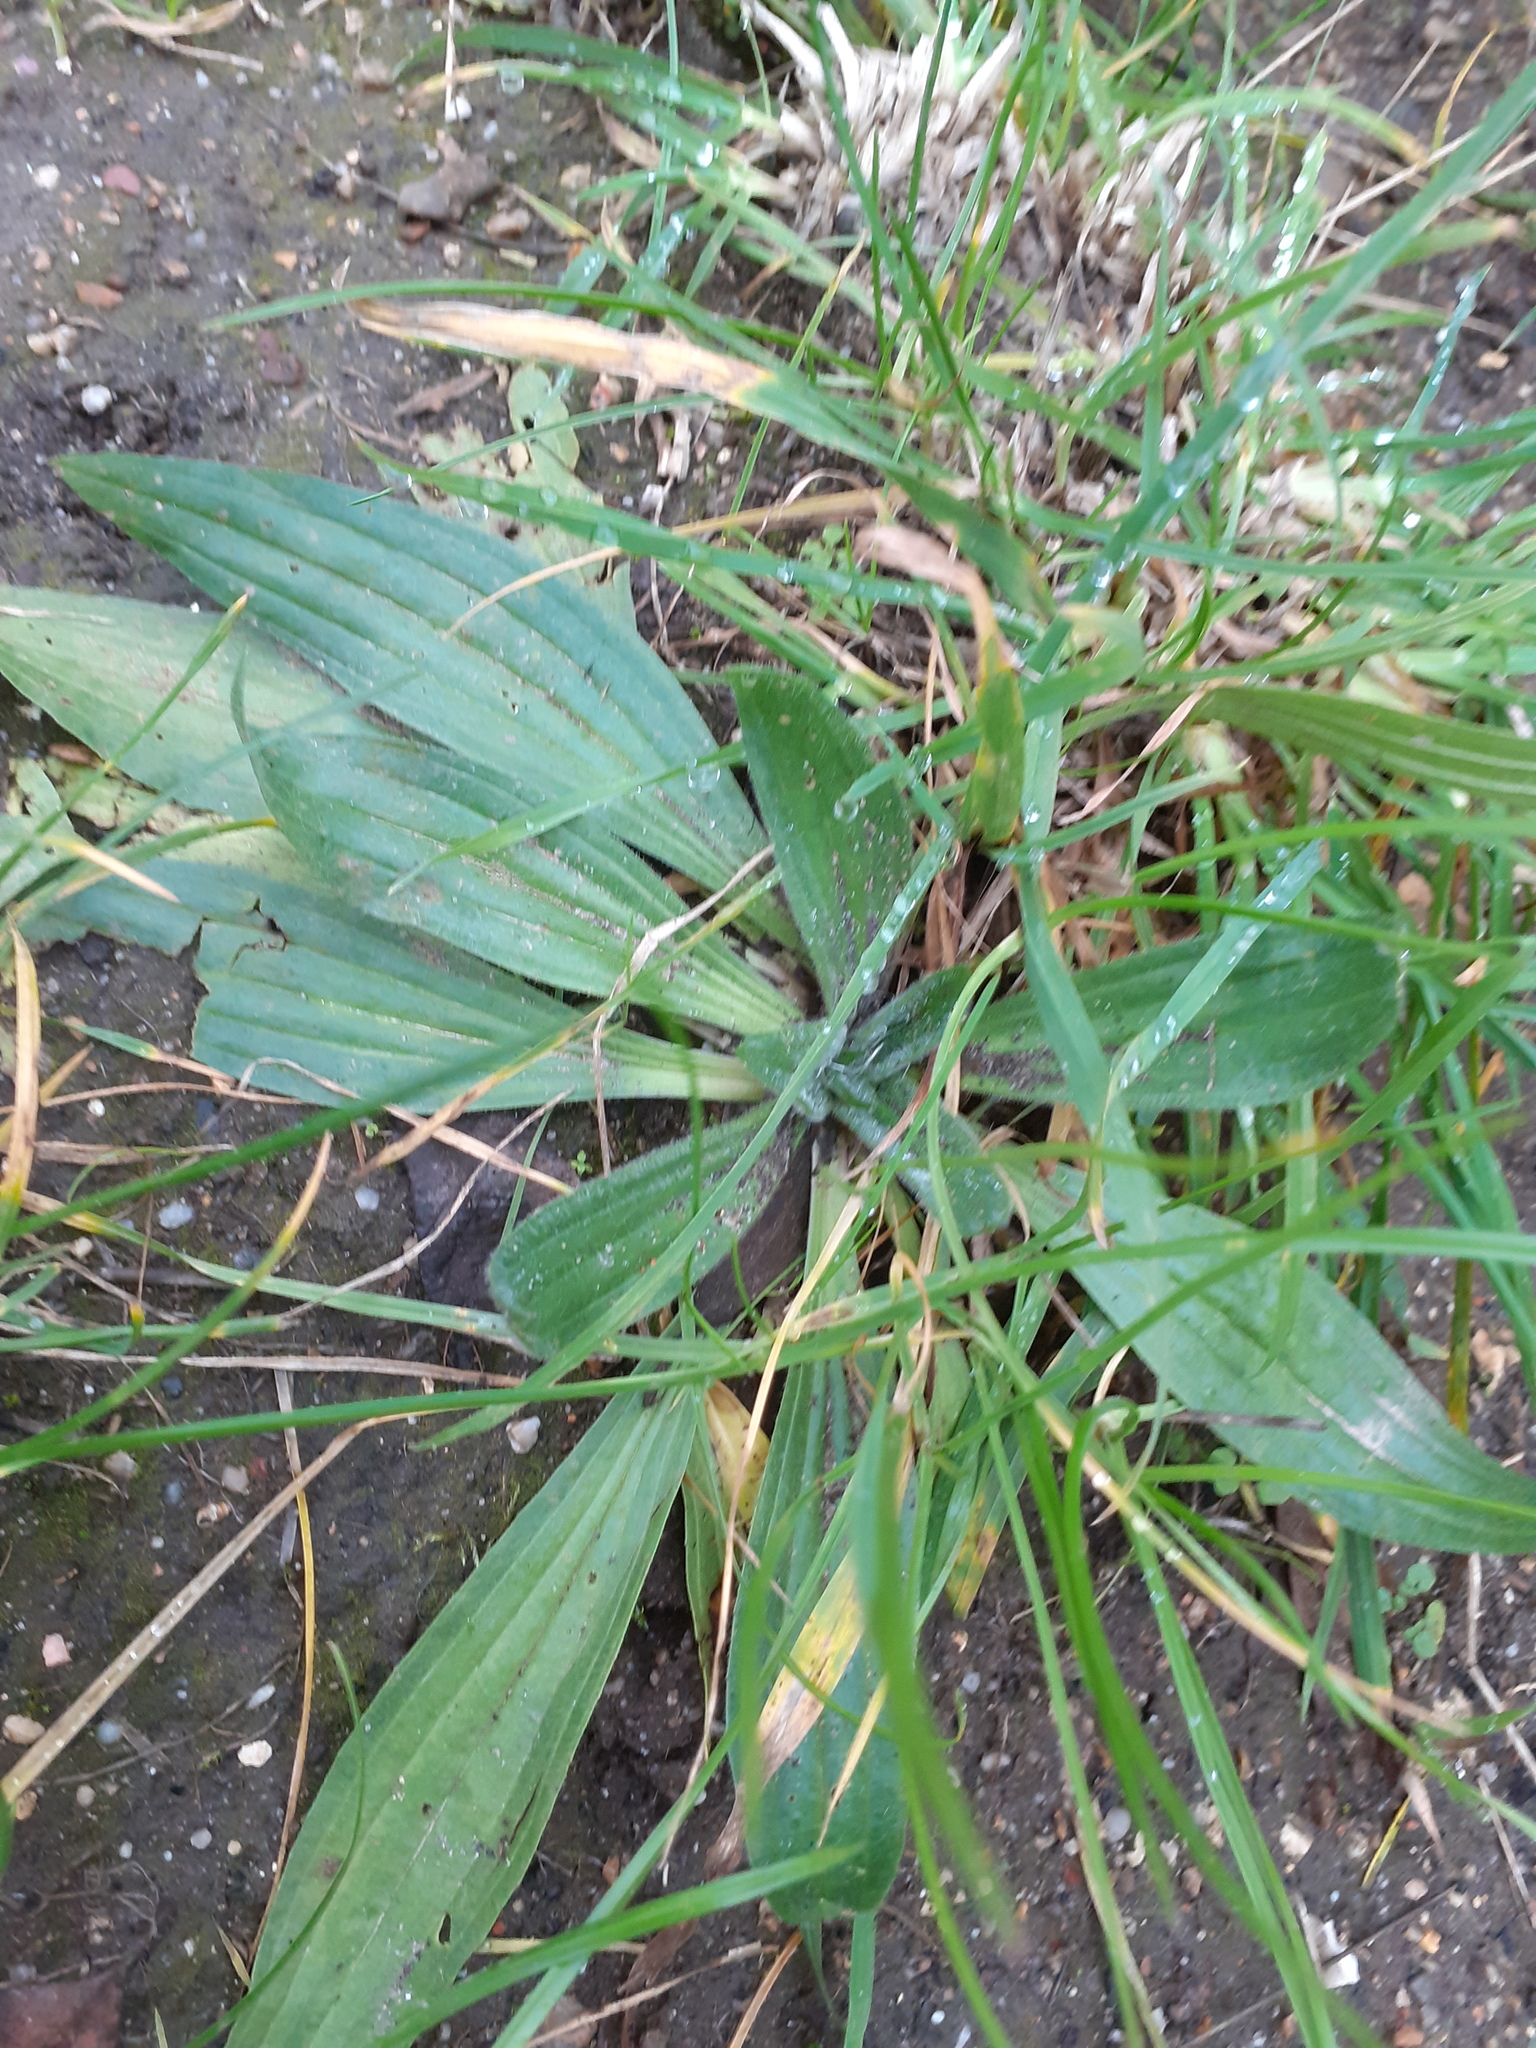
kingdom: Plantae
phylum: Tracheophyta
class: Magnoliopsida
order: Lamiales
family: Plantaginaceae
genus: Plantago
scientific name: Plantago lanceolata
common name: Ribwort plantain
